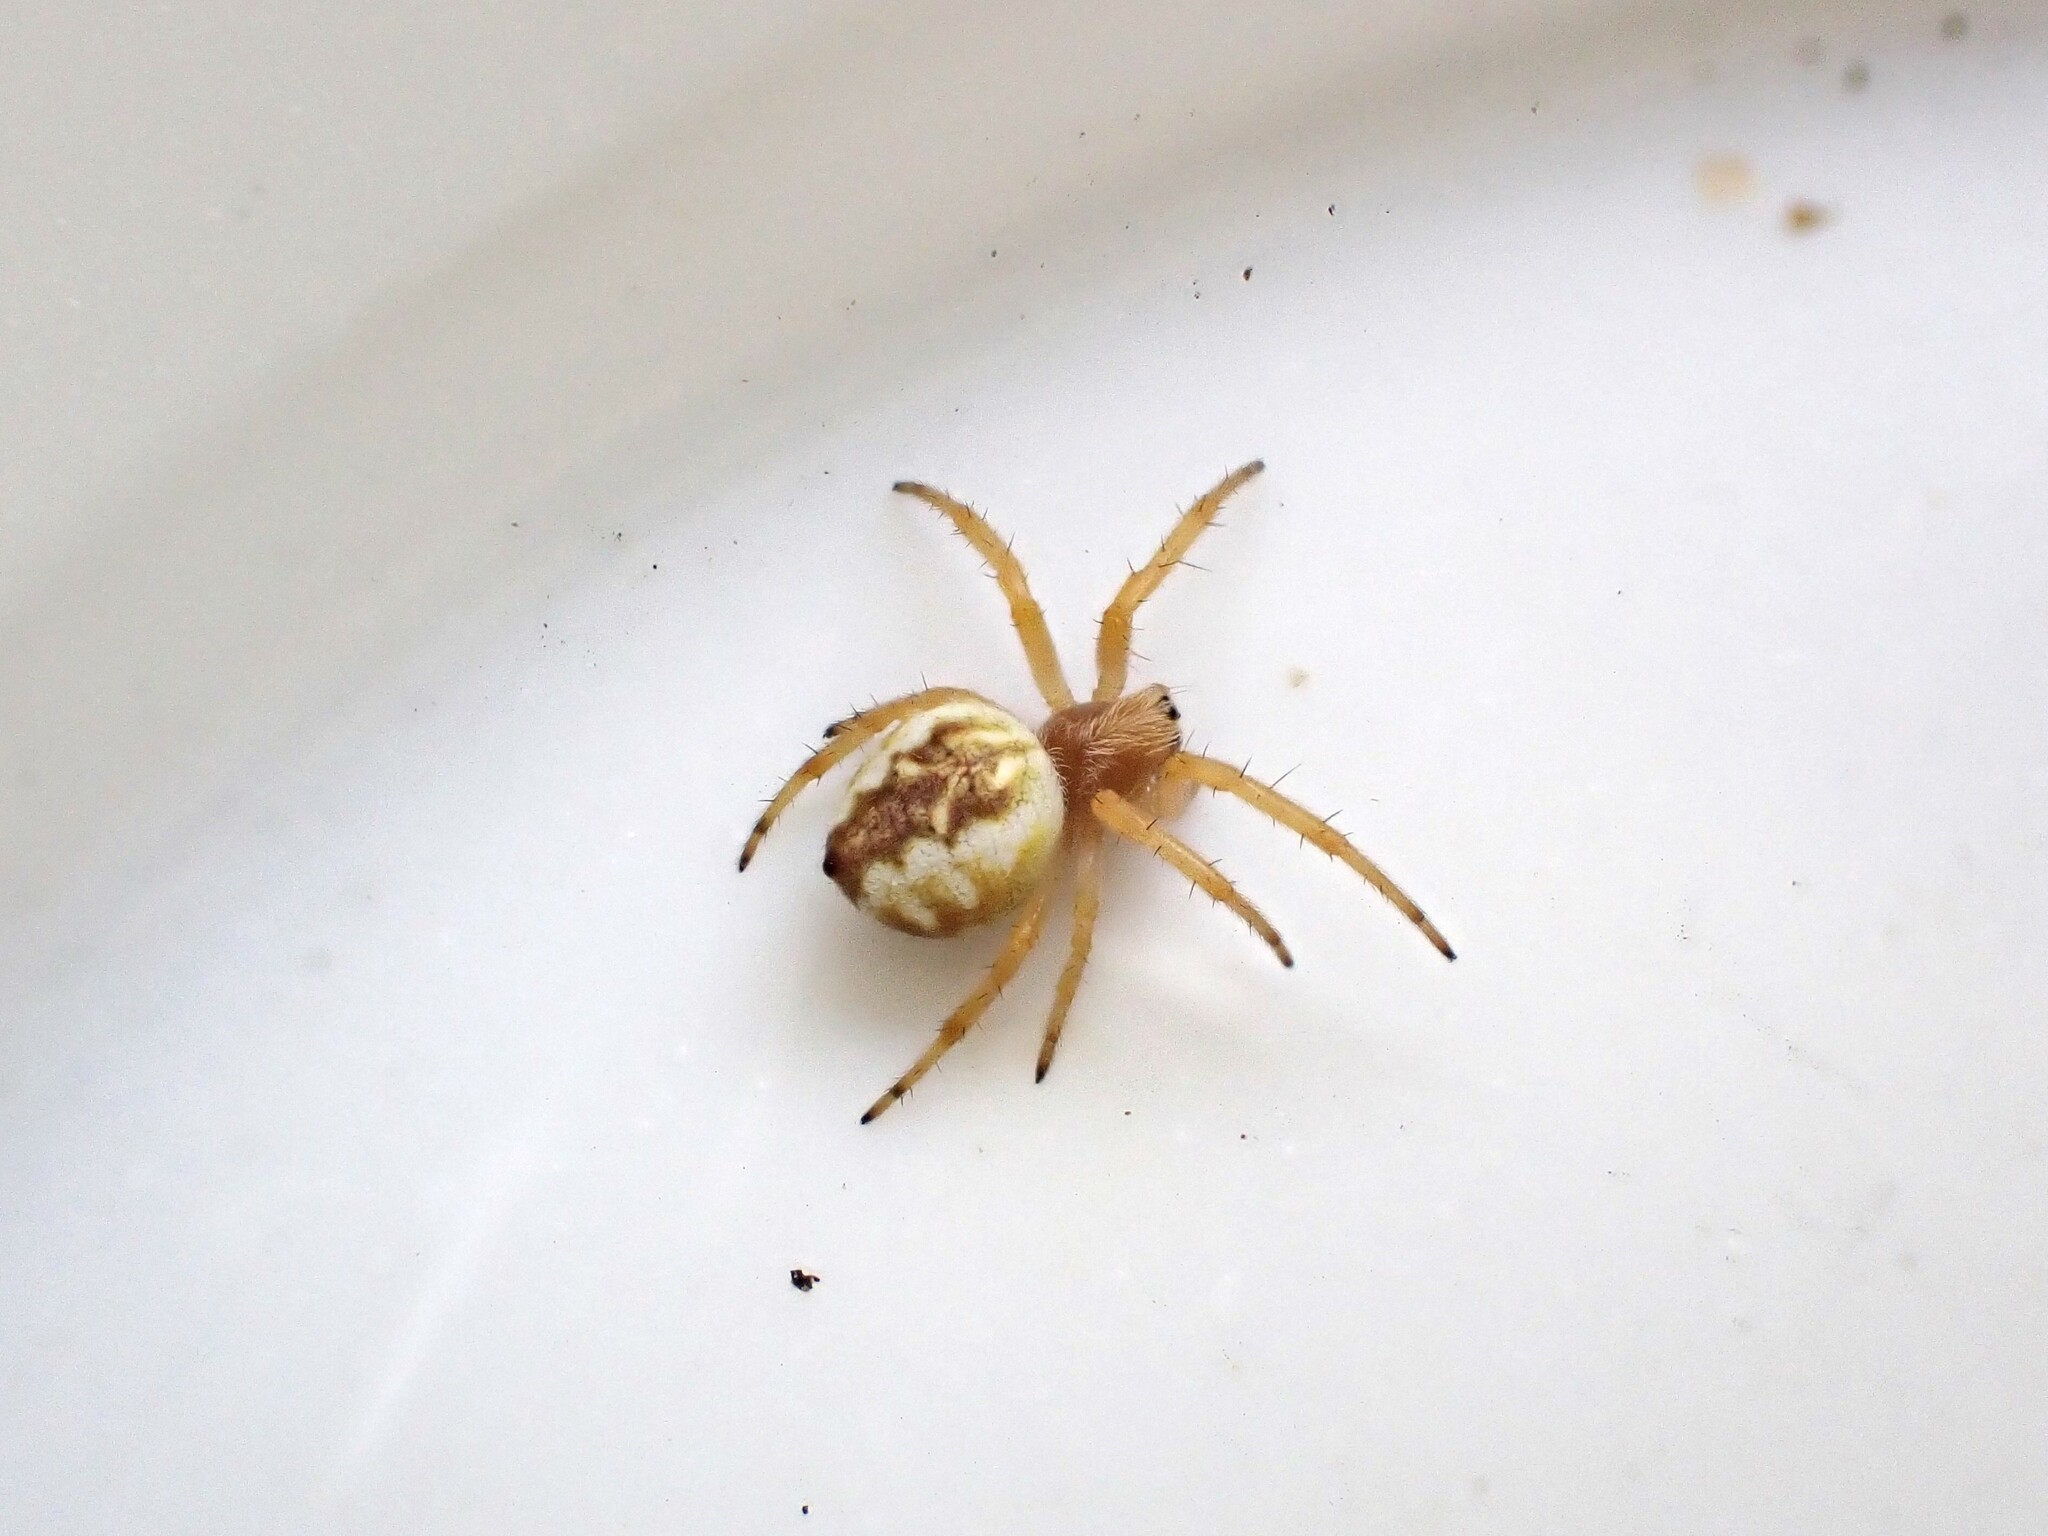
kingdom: Animalia
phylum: Arthropoda
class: Arachnida
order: Araneae
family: Araneidae
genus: Salsa
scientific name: Salsa fuliginata
